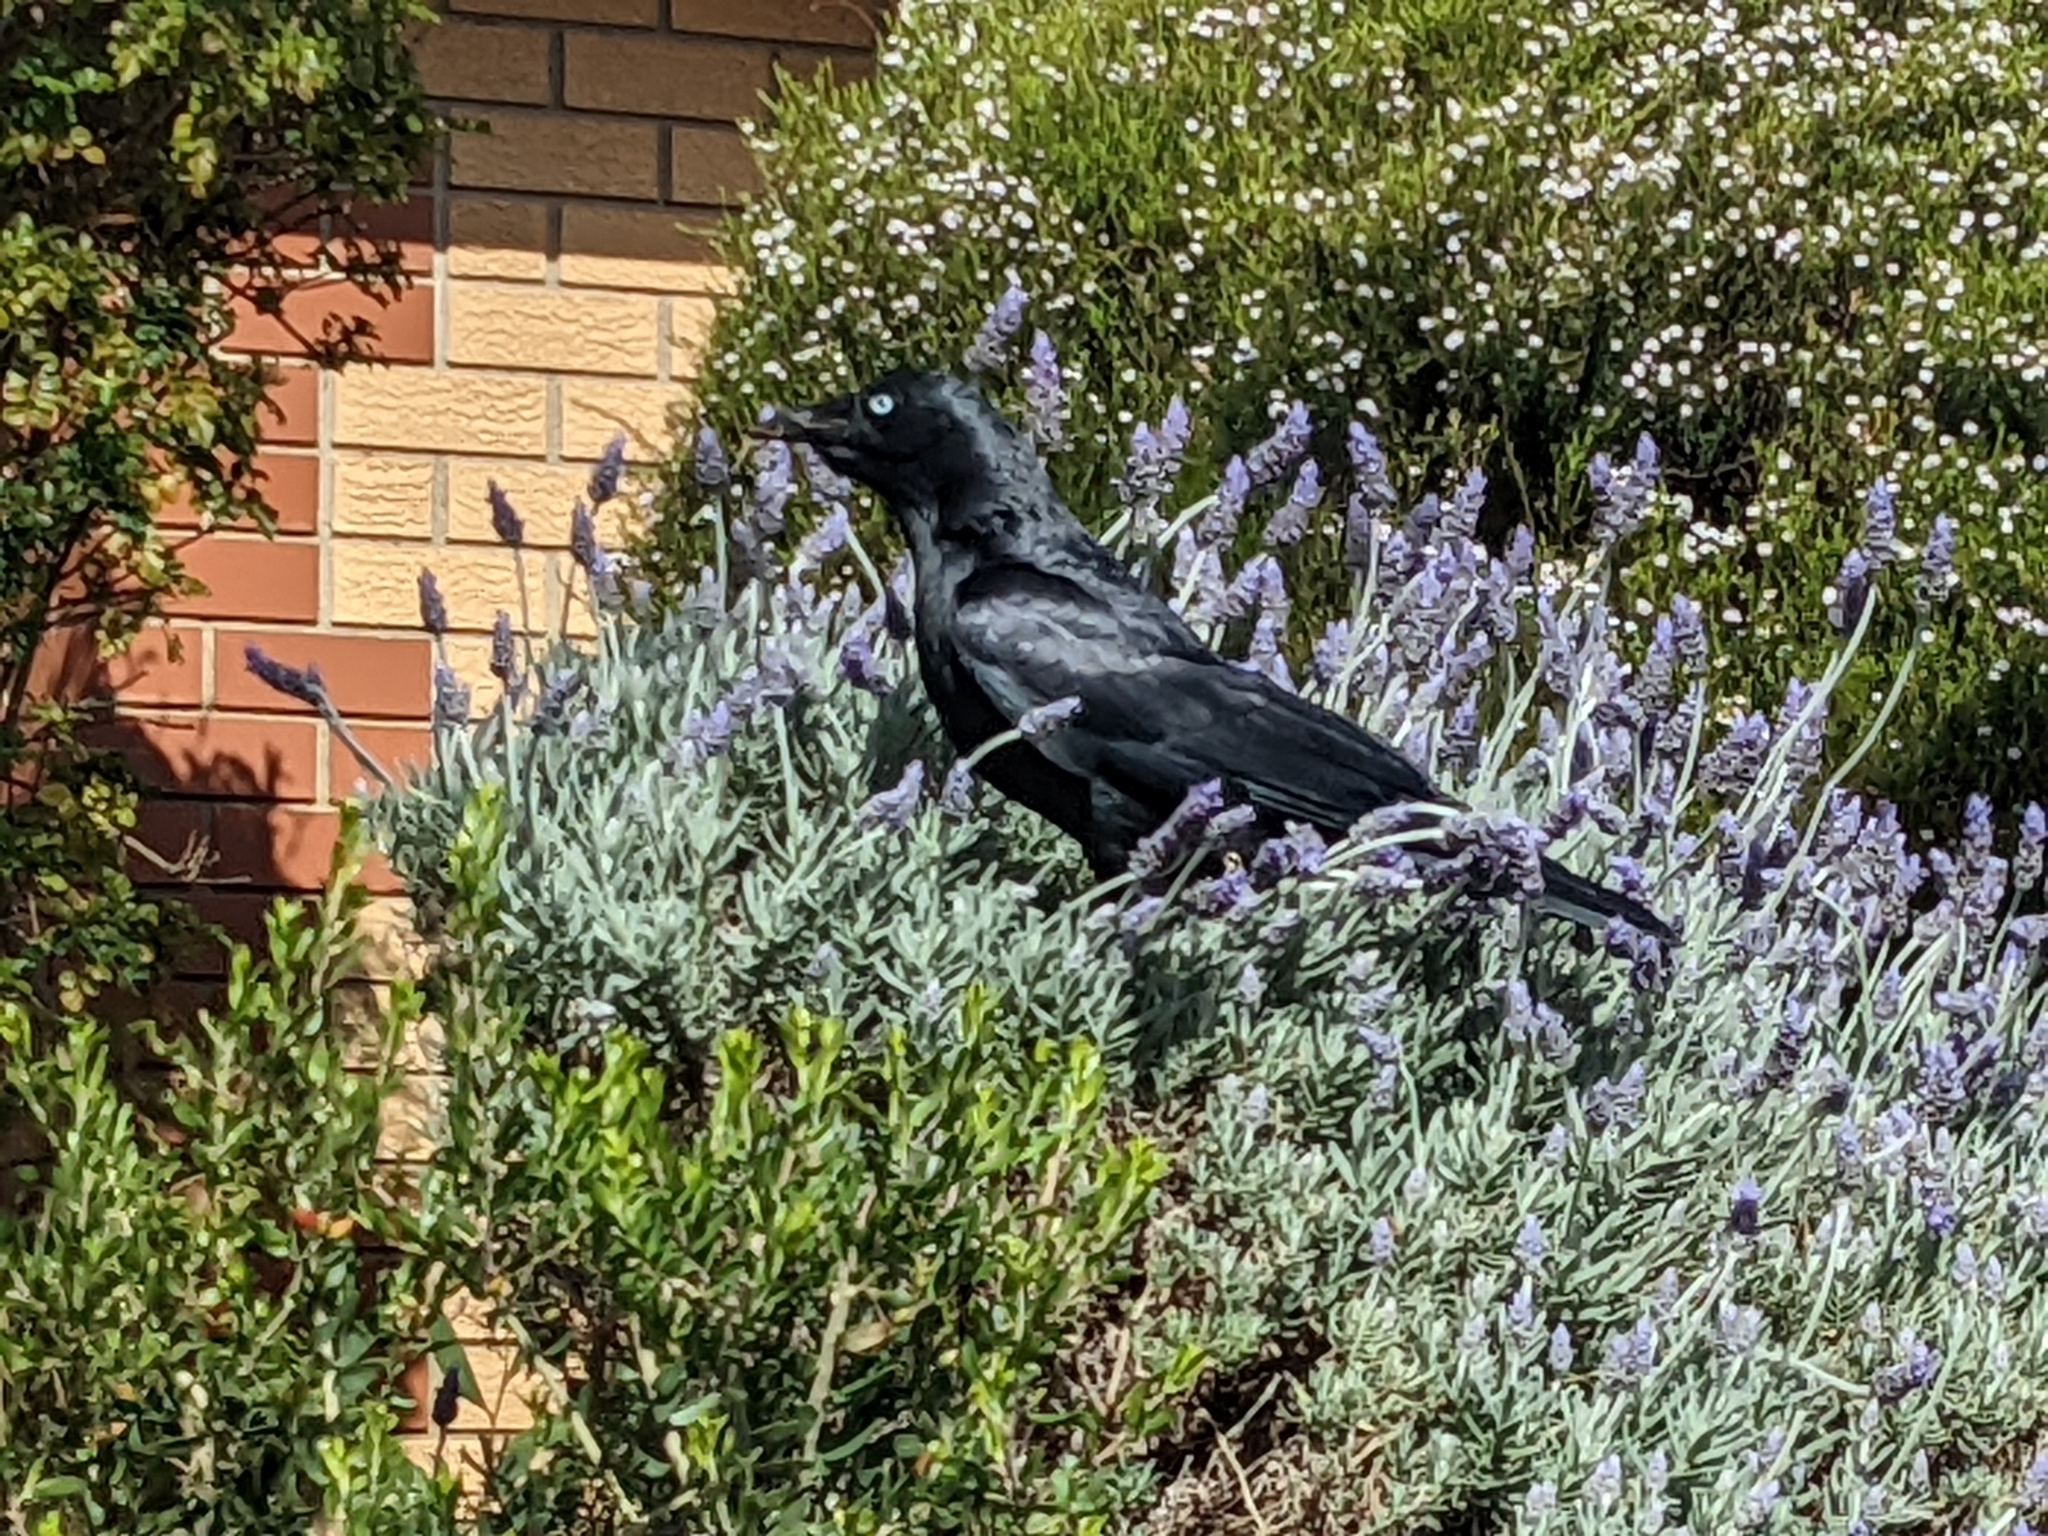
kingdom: Animalia
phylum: Chordata
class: Aves
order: Passeriformes
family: Corvidae
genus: Corvus
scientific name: Corvus mellori
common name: Little raven
